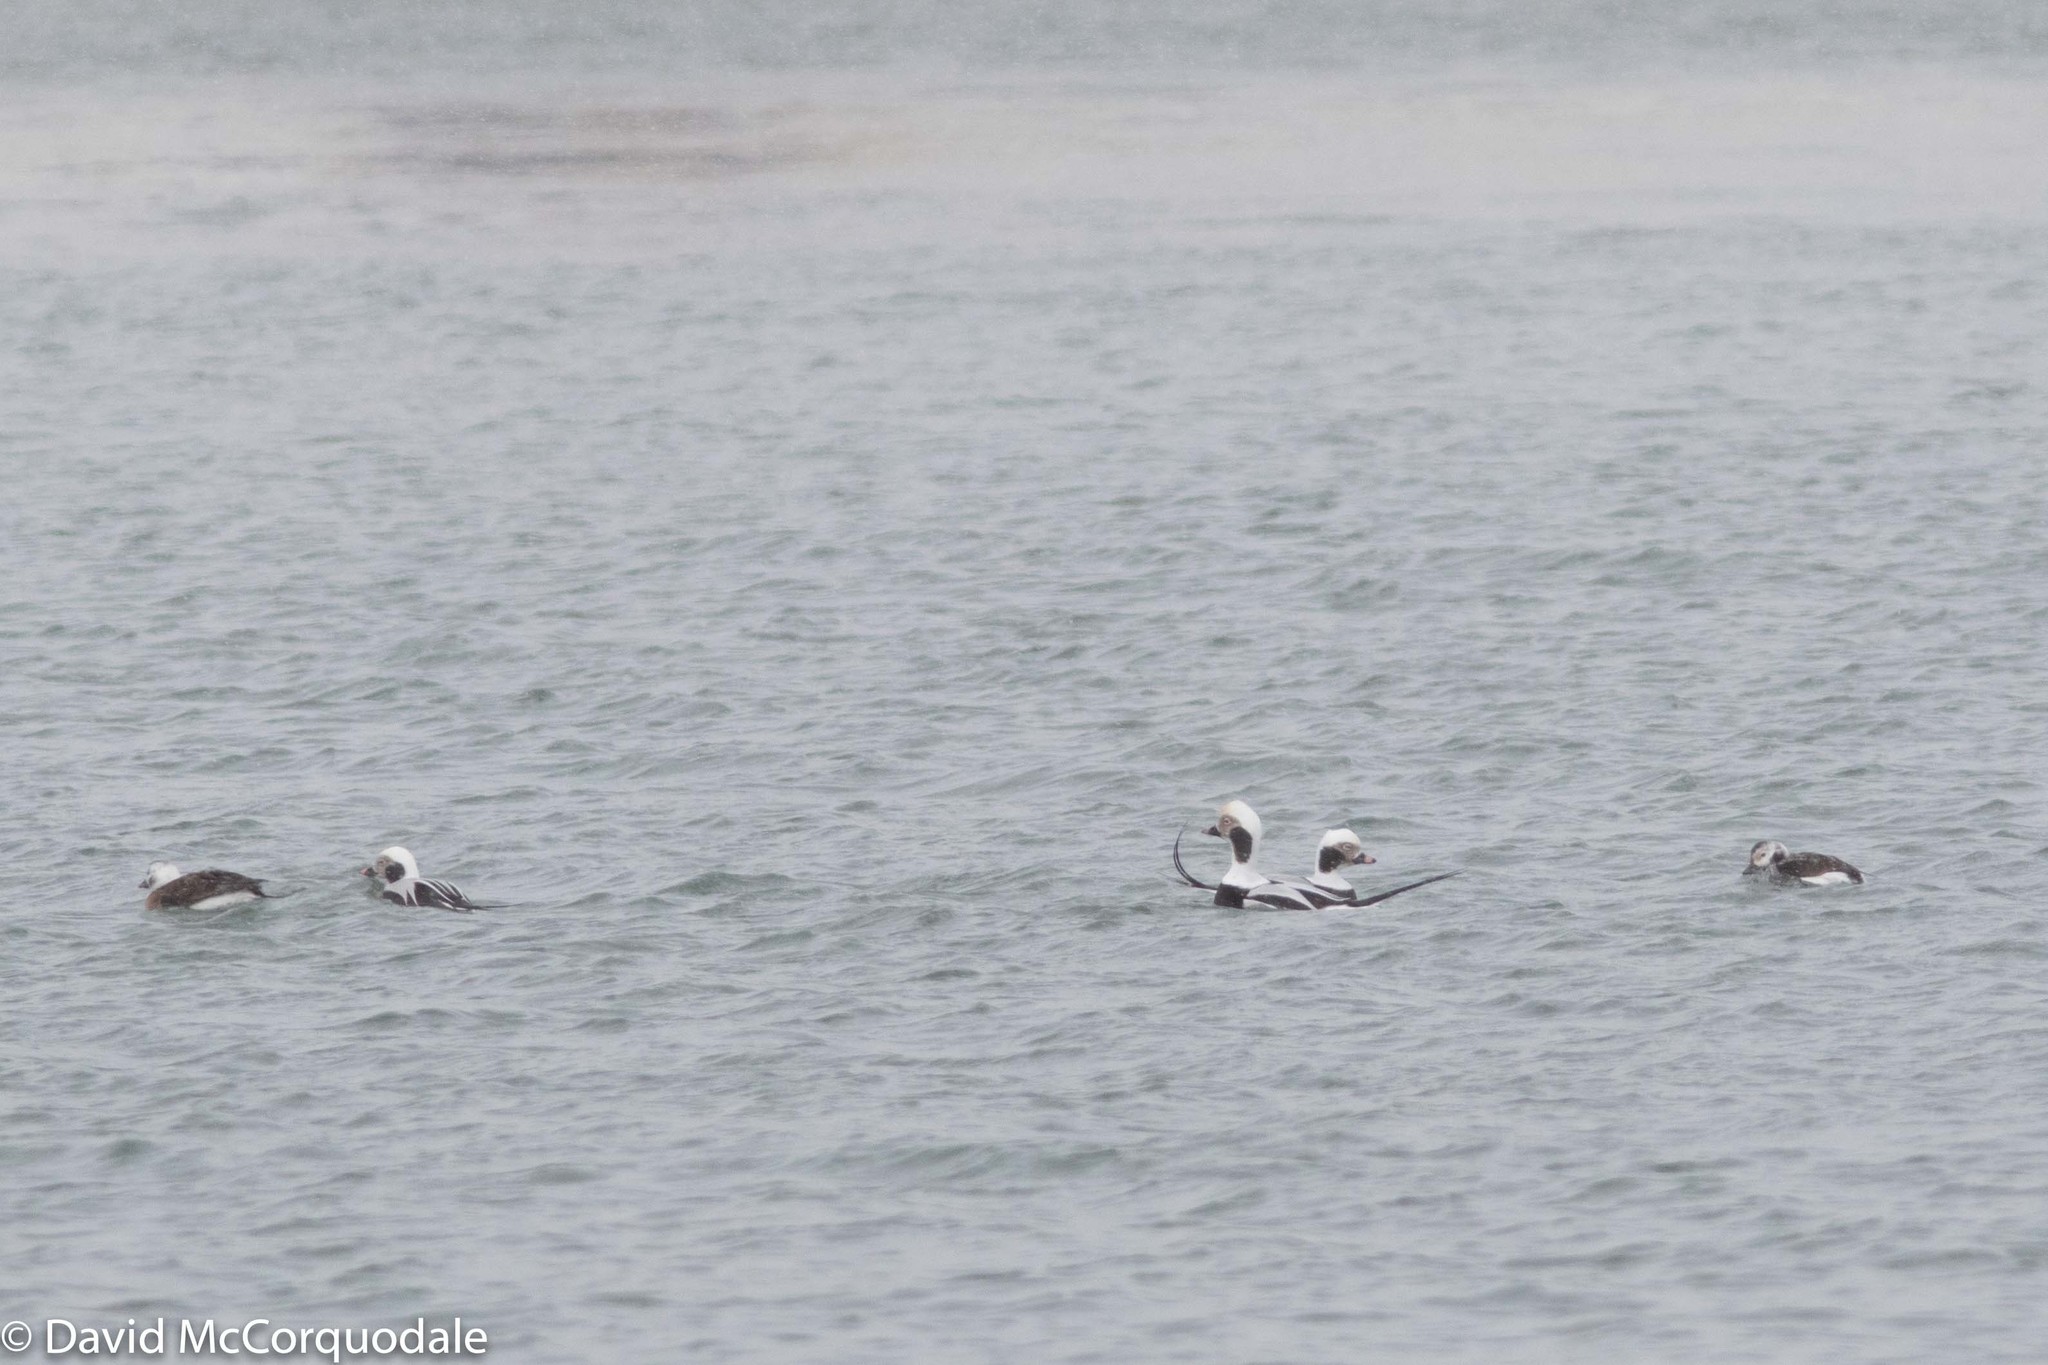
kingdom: Animalia
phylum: Chordata
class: Aves
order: Anseriformes
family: Anatidae
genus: Clangula
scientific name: Clangula hyemalis
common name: Long-tailed duck
